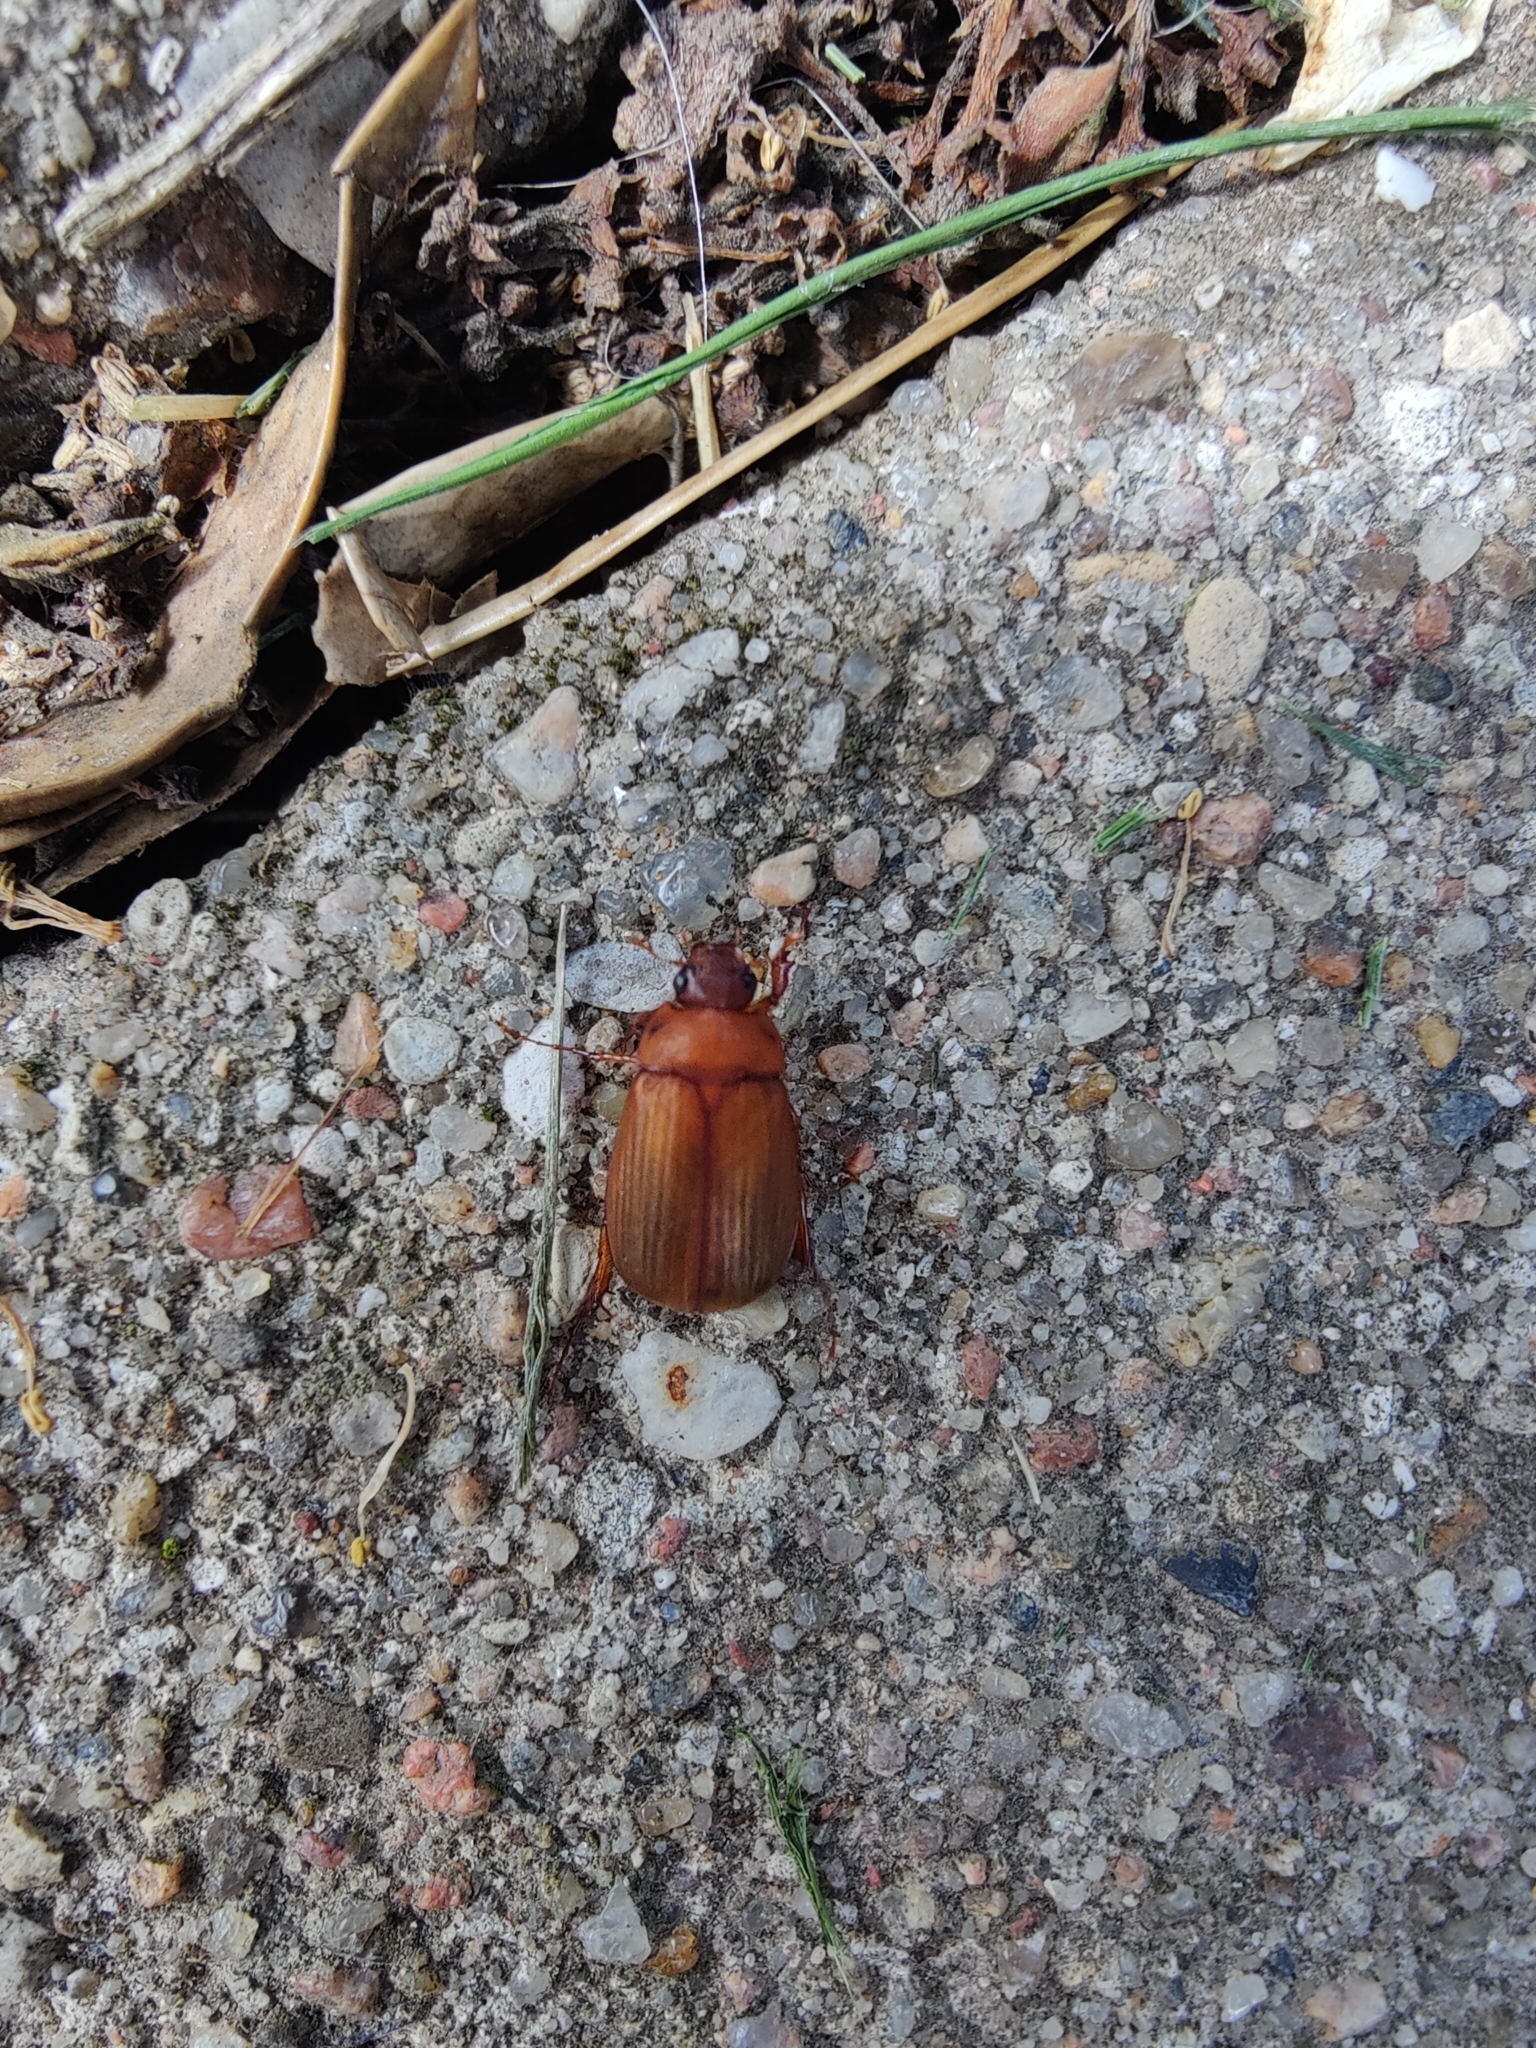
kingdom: Animalia
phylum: Arthropoda
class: Insecta
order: Coleoptera
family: Scarabaeidae
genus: Serica
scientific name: Serica brunnea
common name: Brown chafer
